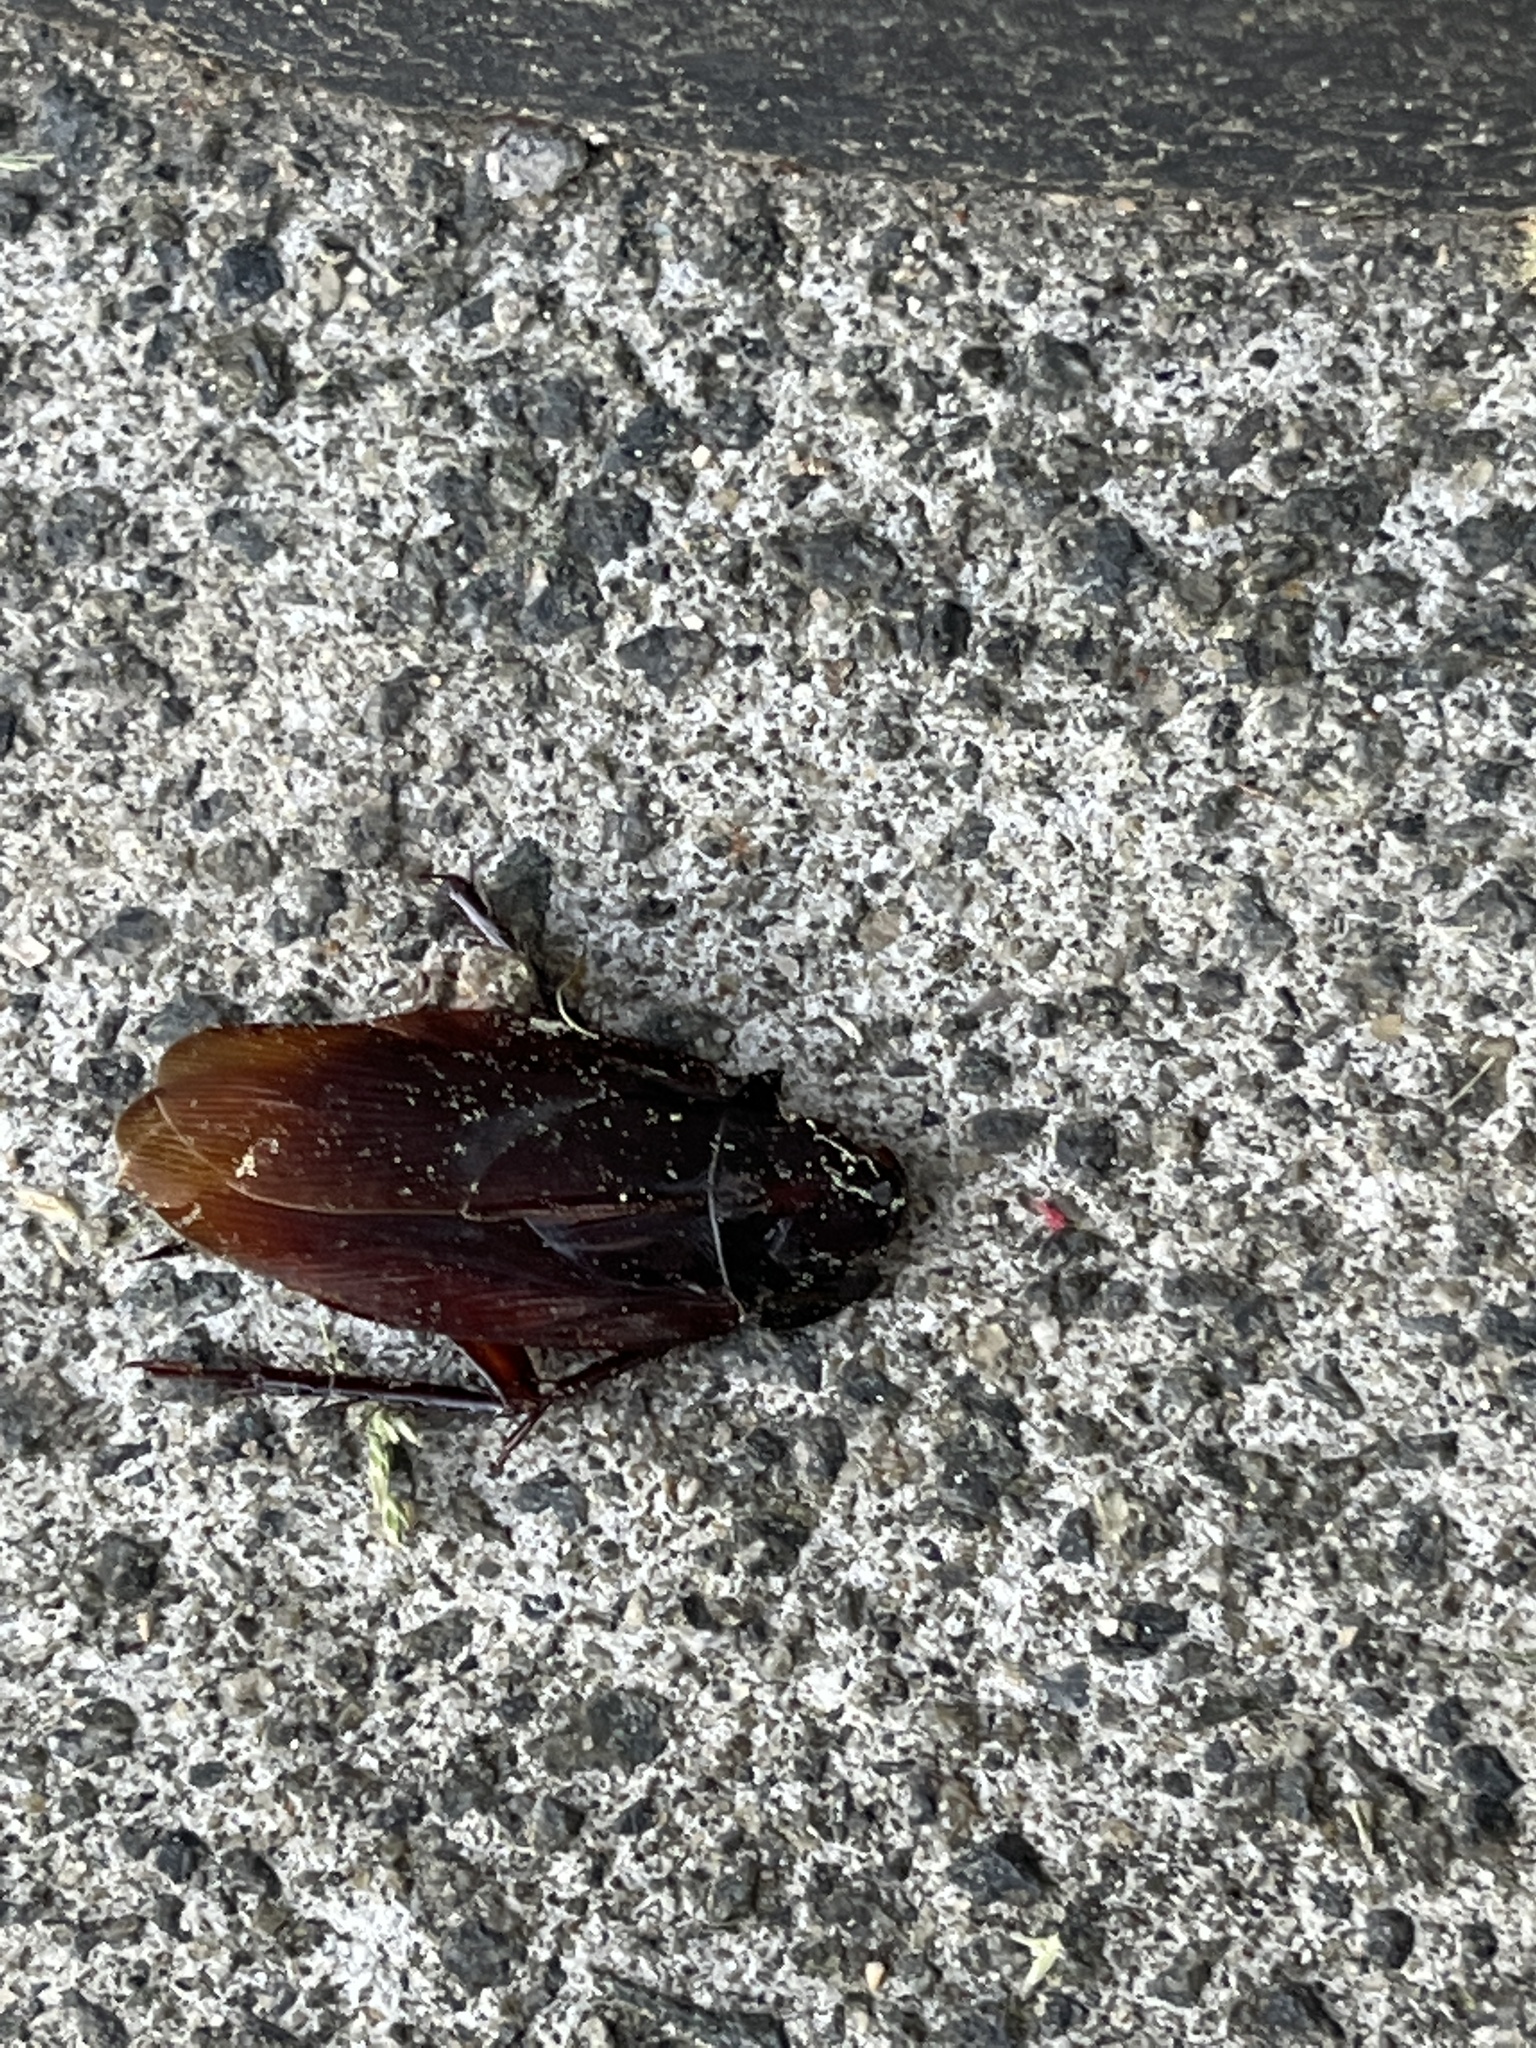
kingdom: Animalia
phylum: Arthropoda
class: Insecta
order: Blattodea
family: Blattidae
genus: Periplaneta
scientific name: Periplaneta fuliginosa
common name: Smokeybrown cockroad
